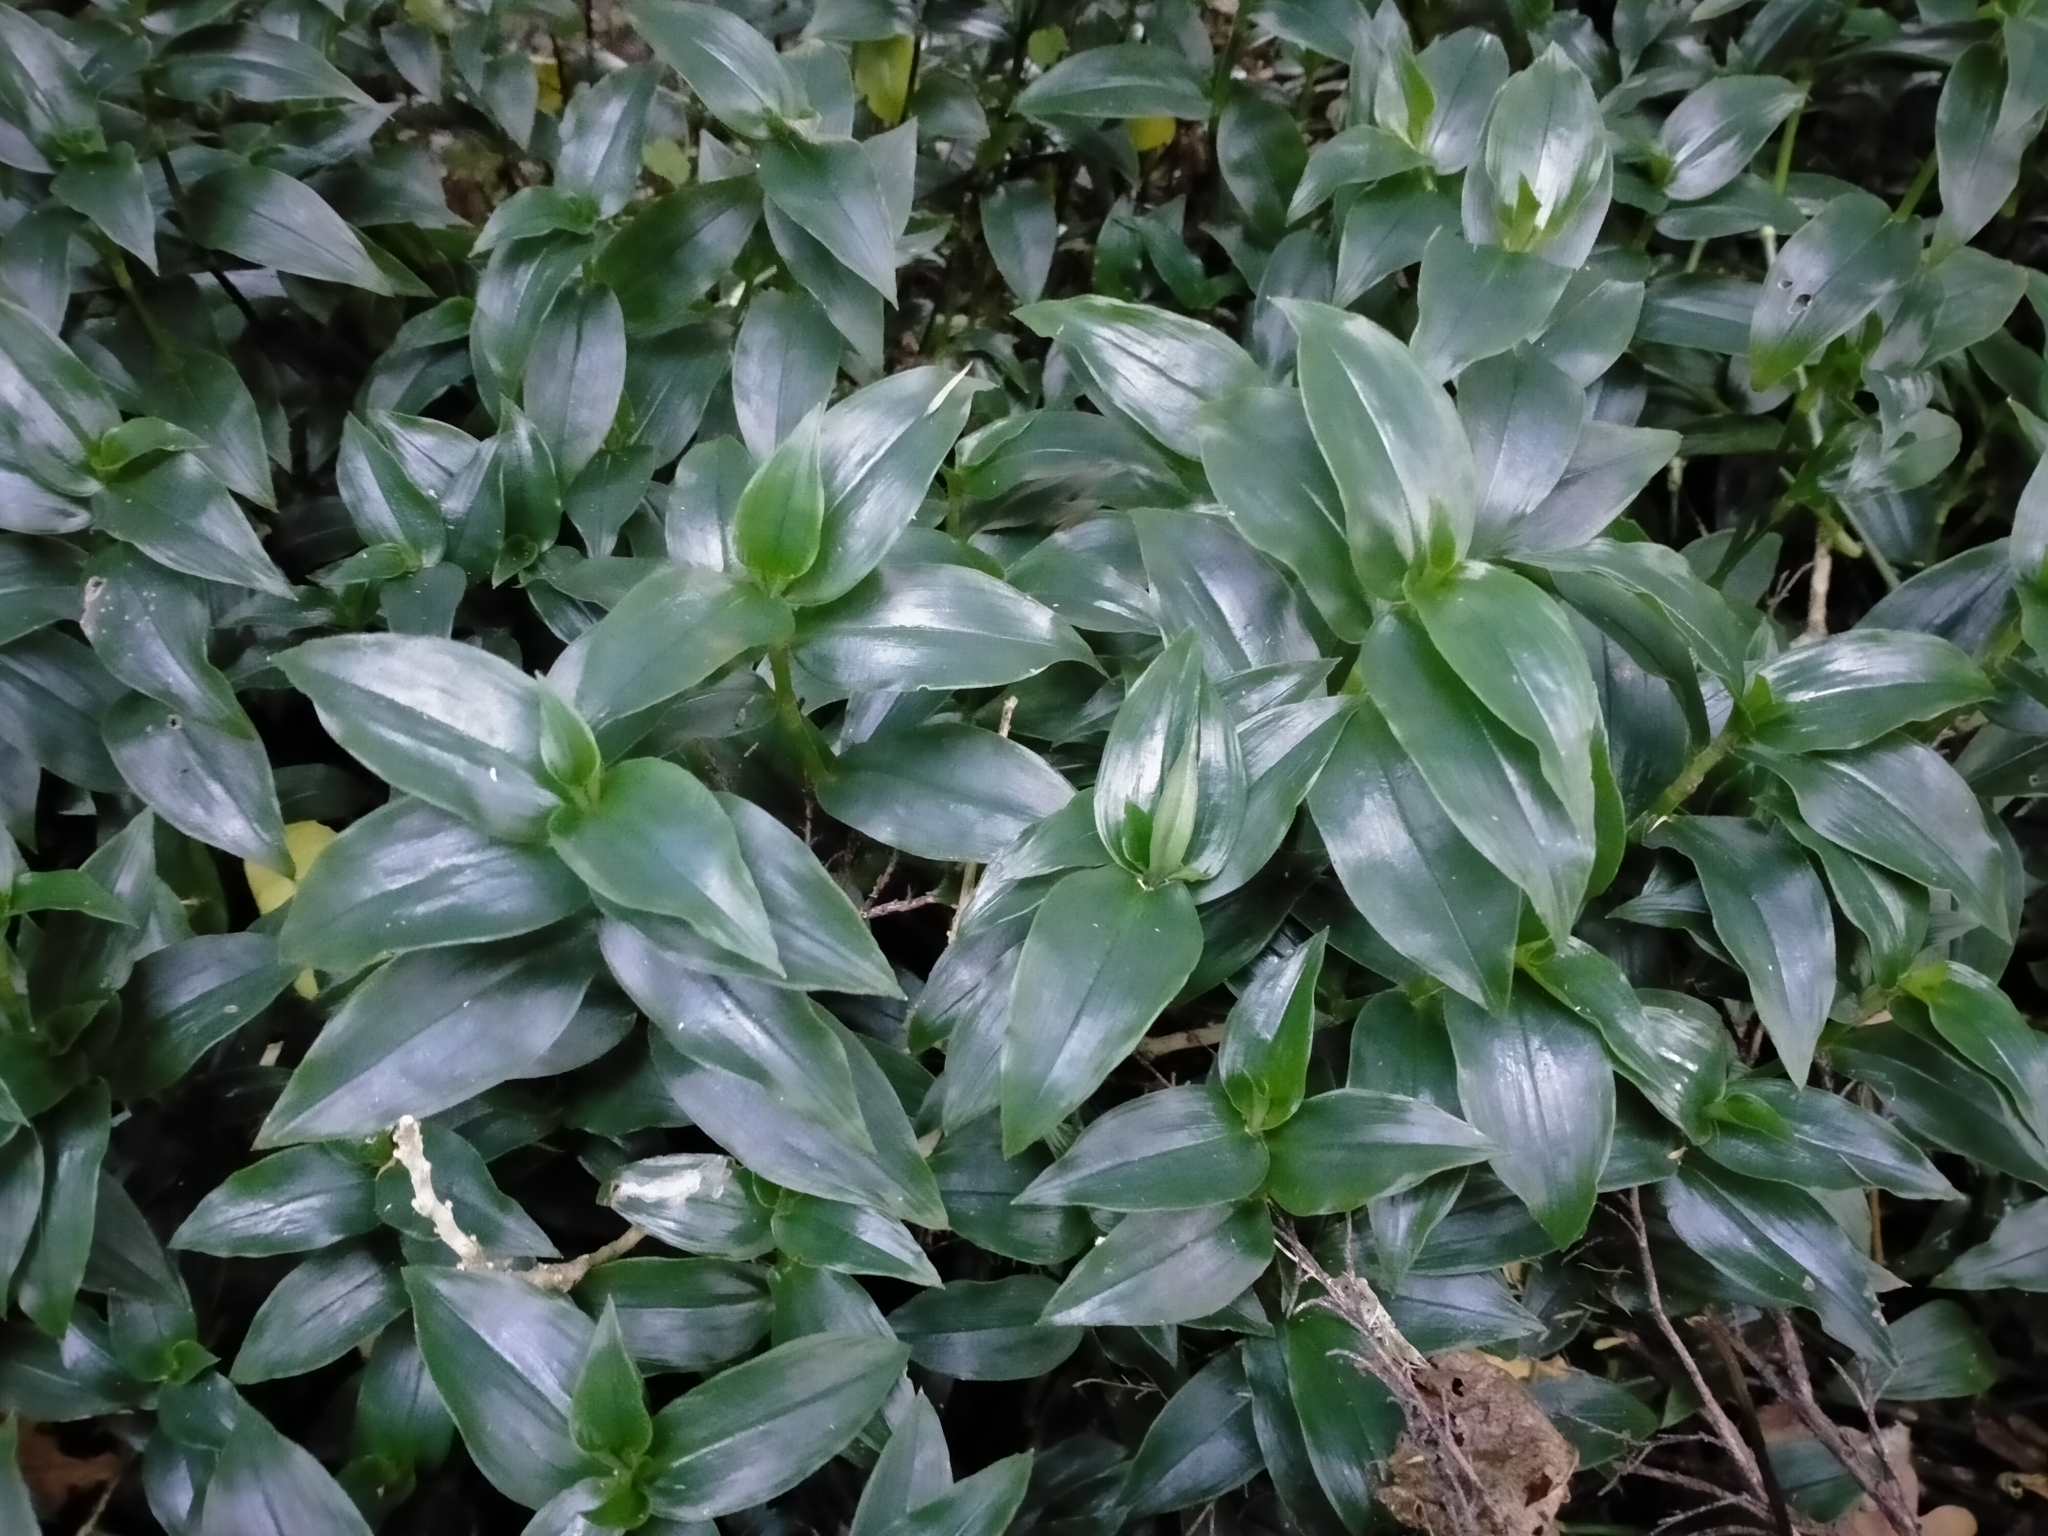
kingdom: Plantae
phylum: Tracheophyta
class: Liliopsida
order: Commelinales
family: Commelinaceae
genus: Tradescantia
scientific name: Tradescantia fluminensis
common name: Wandering-jew
